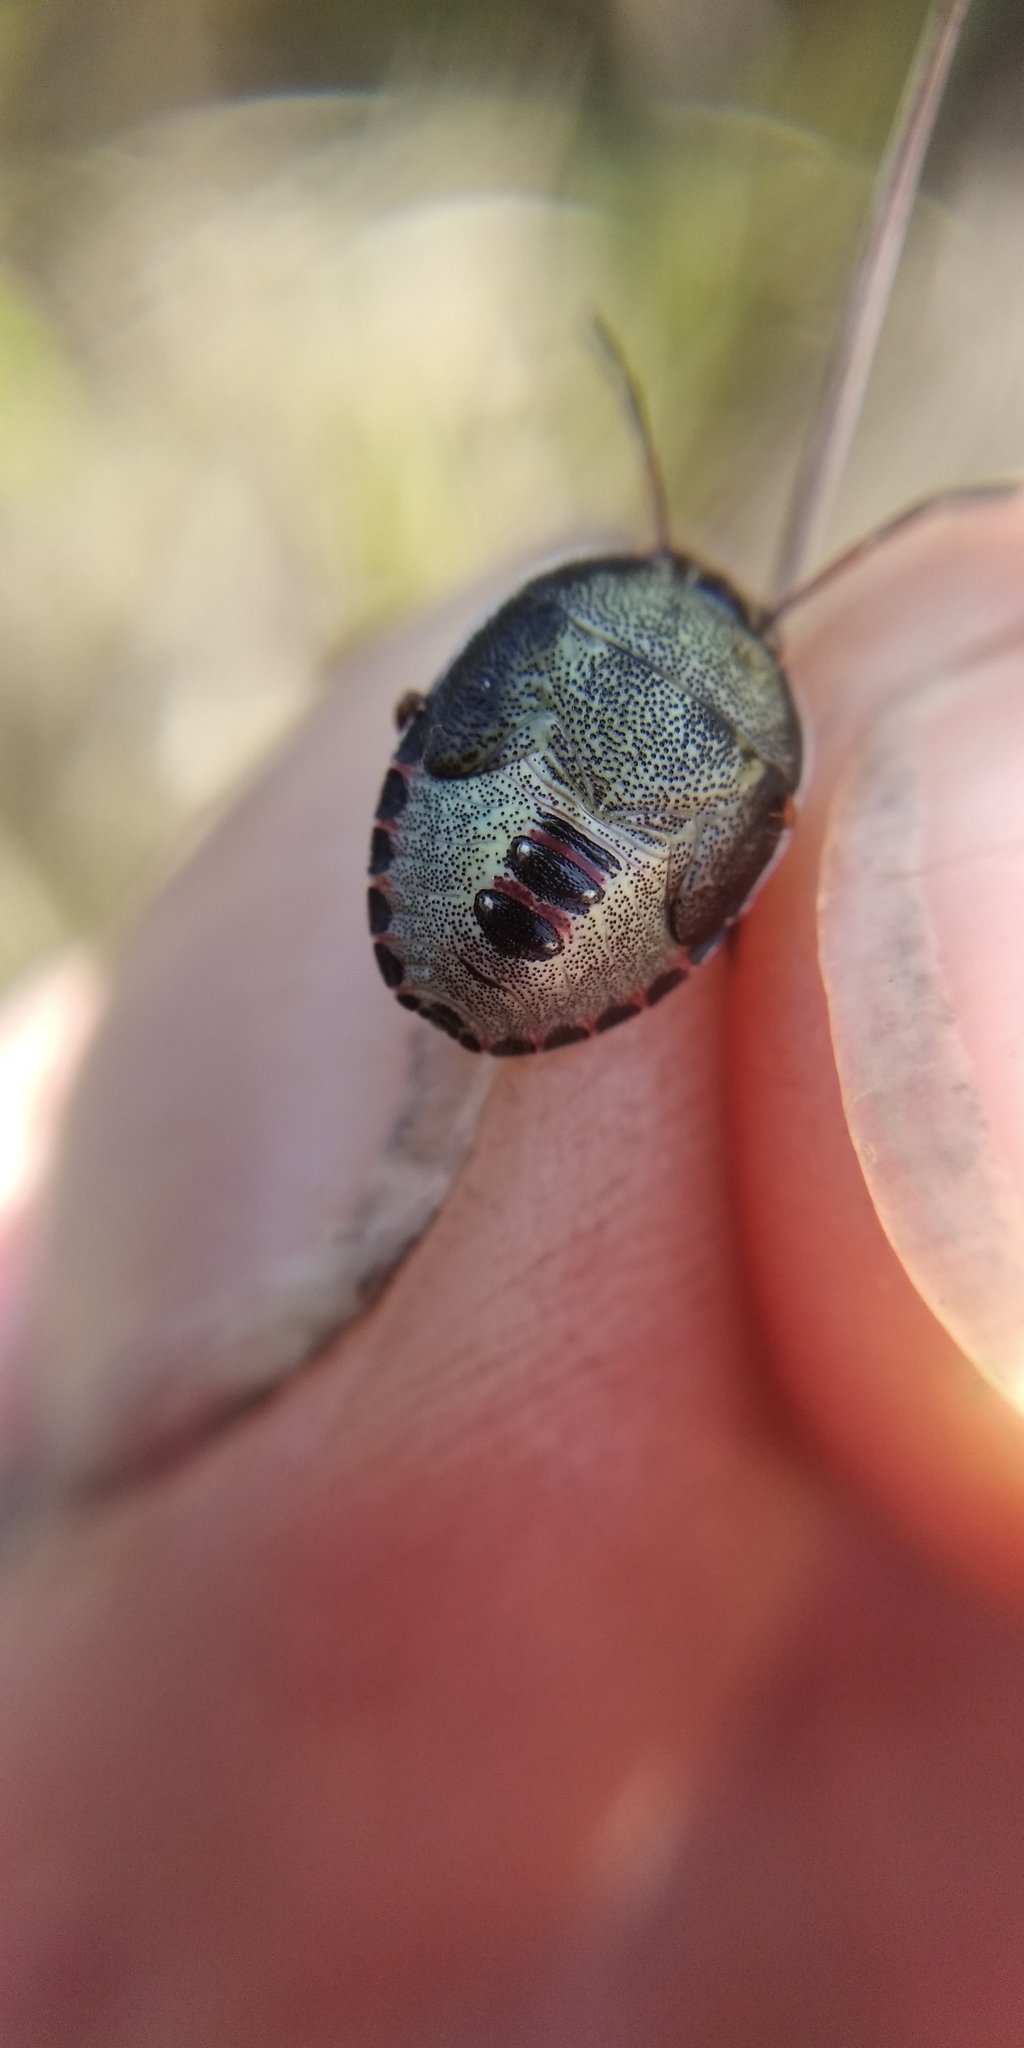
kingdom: Animalia
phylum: Arthropoda
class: Insecta
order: Hemiptera
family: Pentatomidae
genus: Piezodorus
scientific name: Piezodorus lituratus
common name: Stink bug
